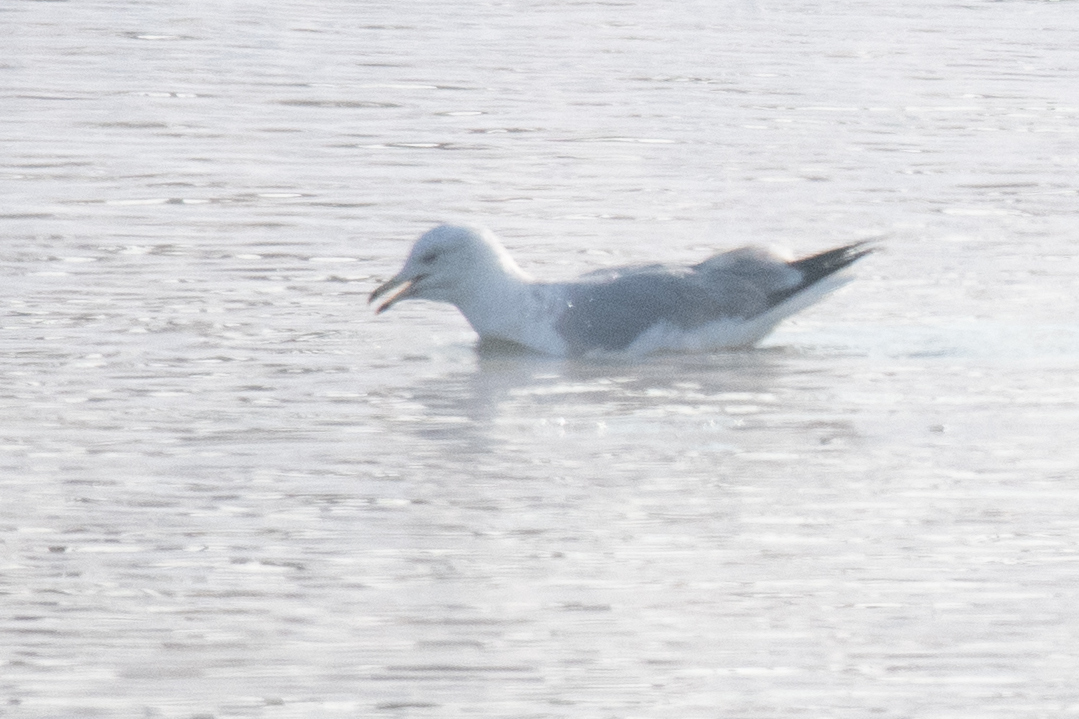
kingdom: Animalia
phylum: Chordata
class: Aves
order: Charadriiformes
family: Laridae
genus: Larus
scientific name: Larus canus
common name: Mew gull
